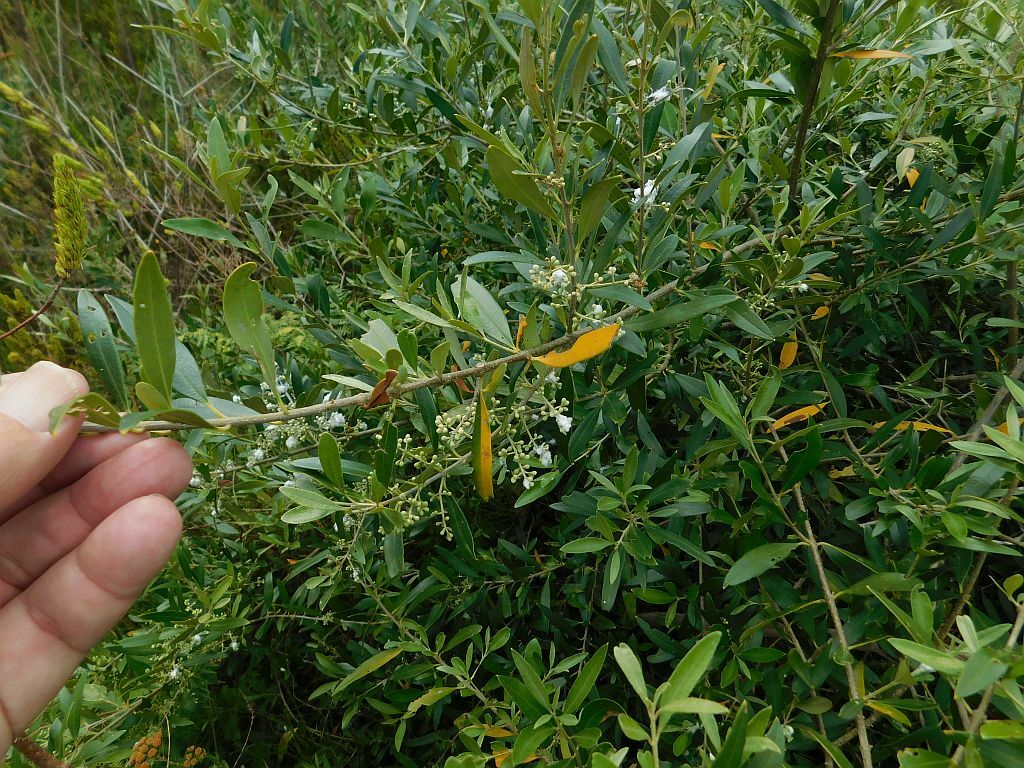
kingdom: Plantae
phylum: Tracheophyta
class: Magnoliopsida
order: Lamiales
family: Oleaceae
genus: Olea
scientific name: Olea europaea
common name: Olive
